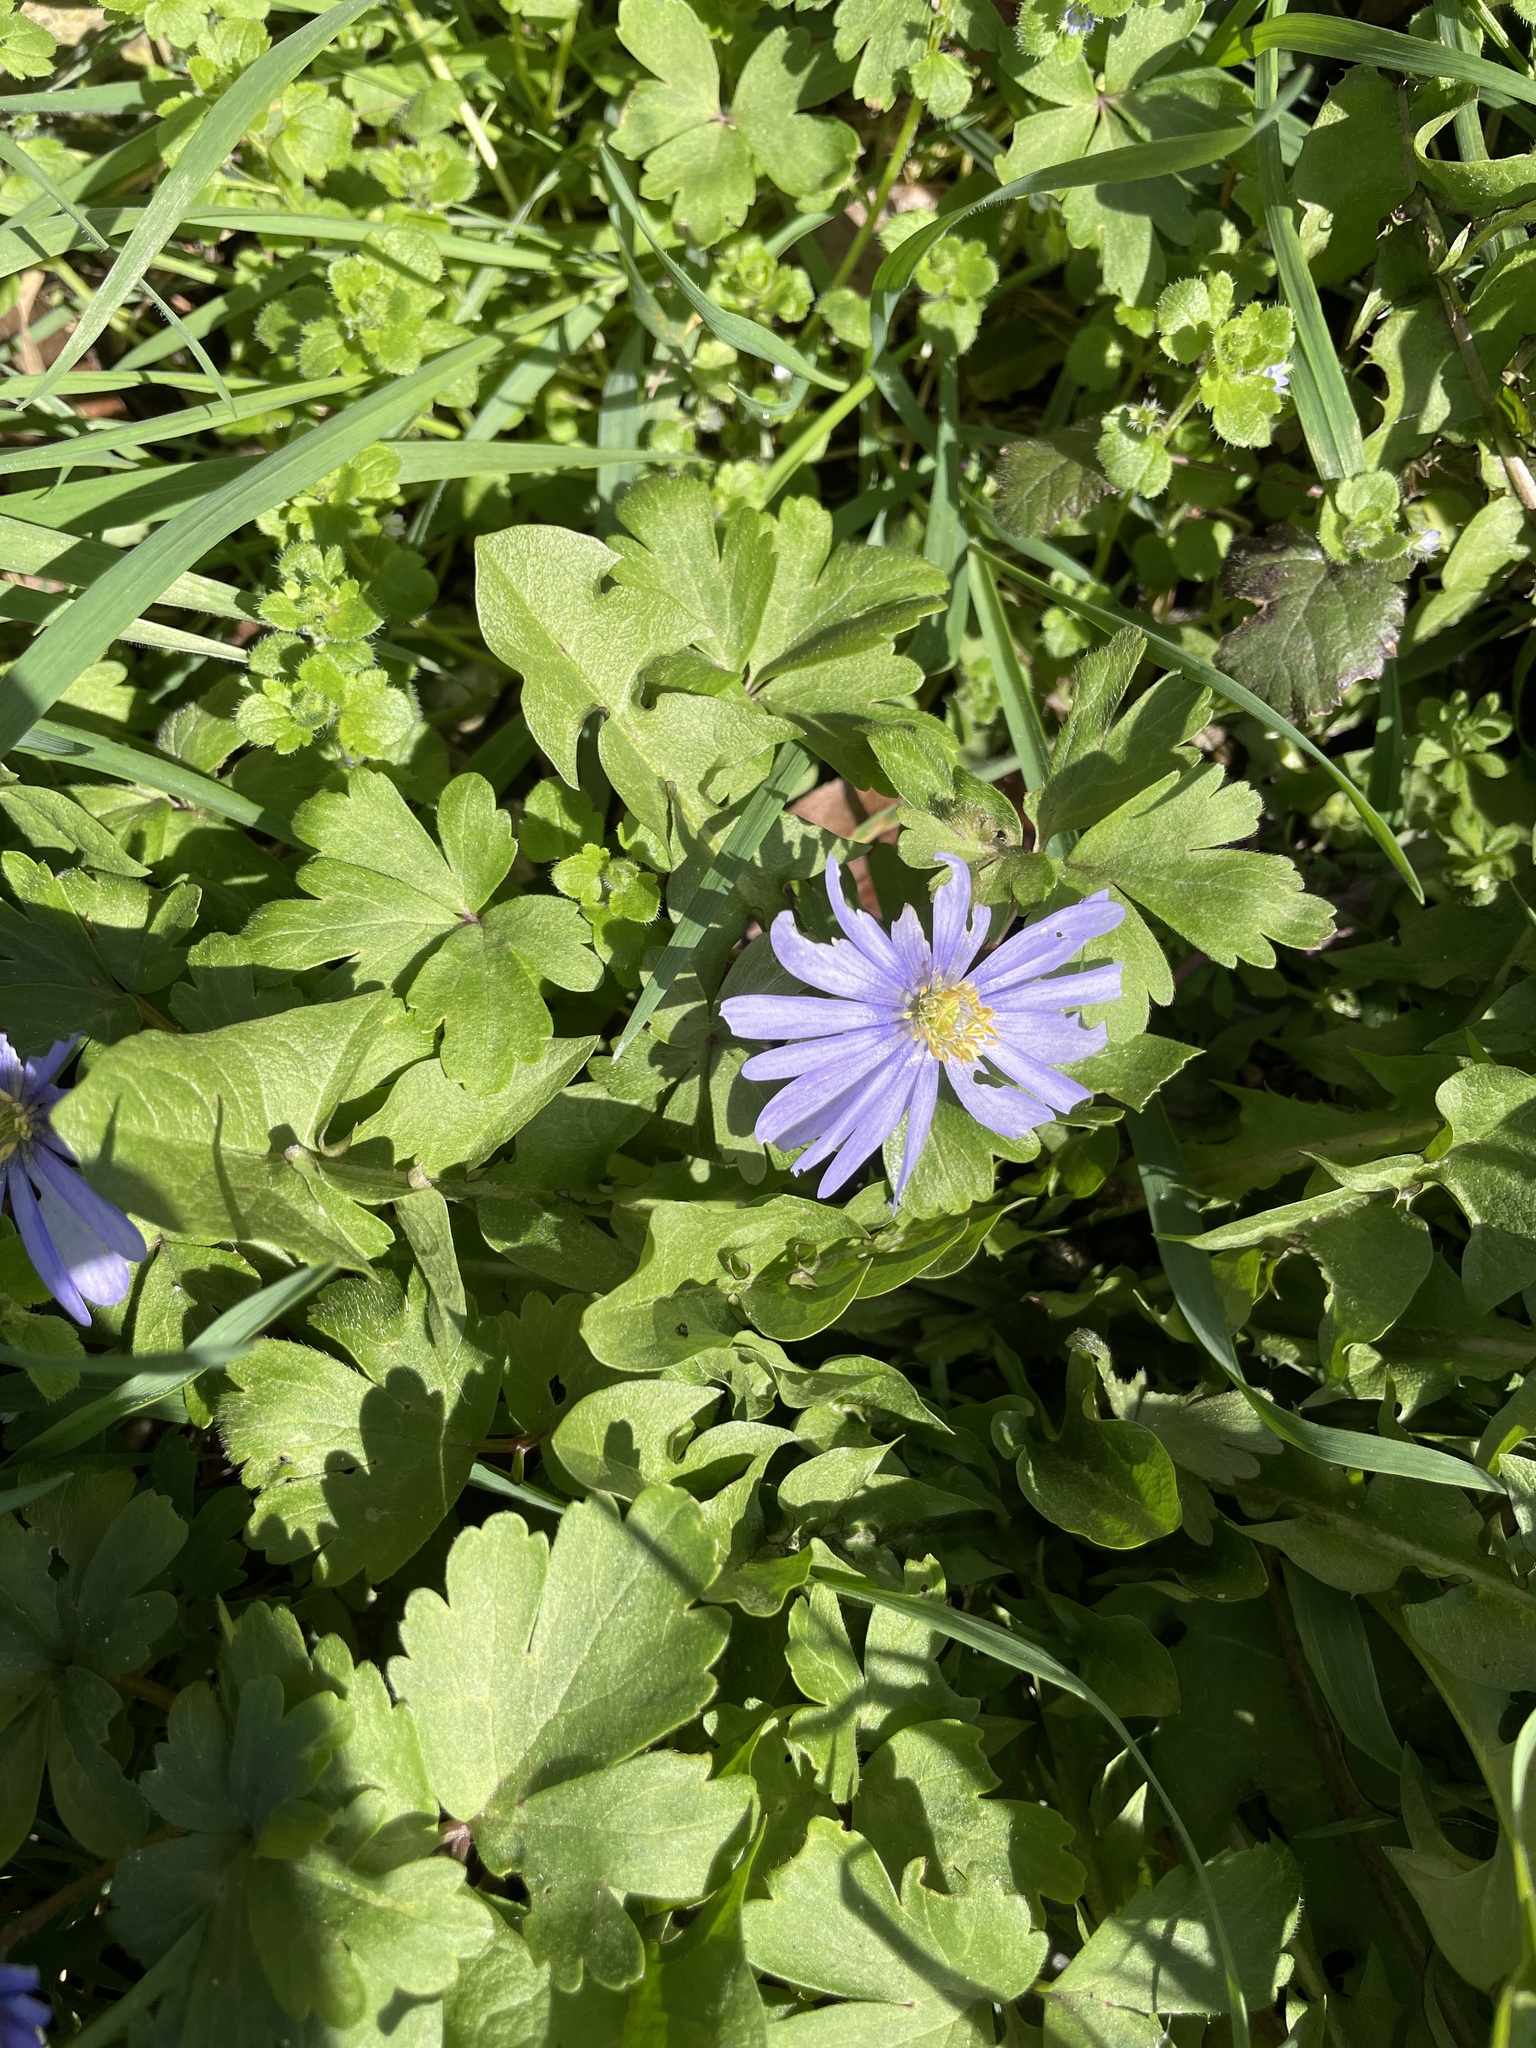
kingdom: Plantae
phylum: Tracheophyta
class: Magnoliopsida
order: Ranunculales
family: Ranunculaceae
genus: Anemone
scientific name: Anemone blanda
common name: Balkan anemone
